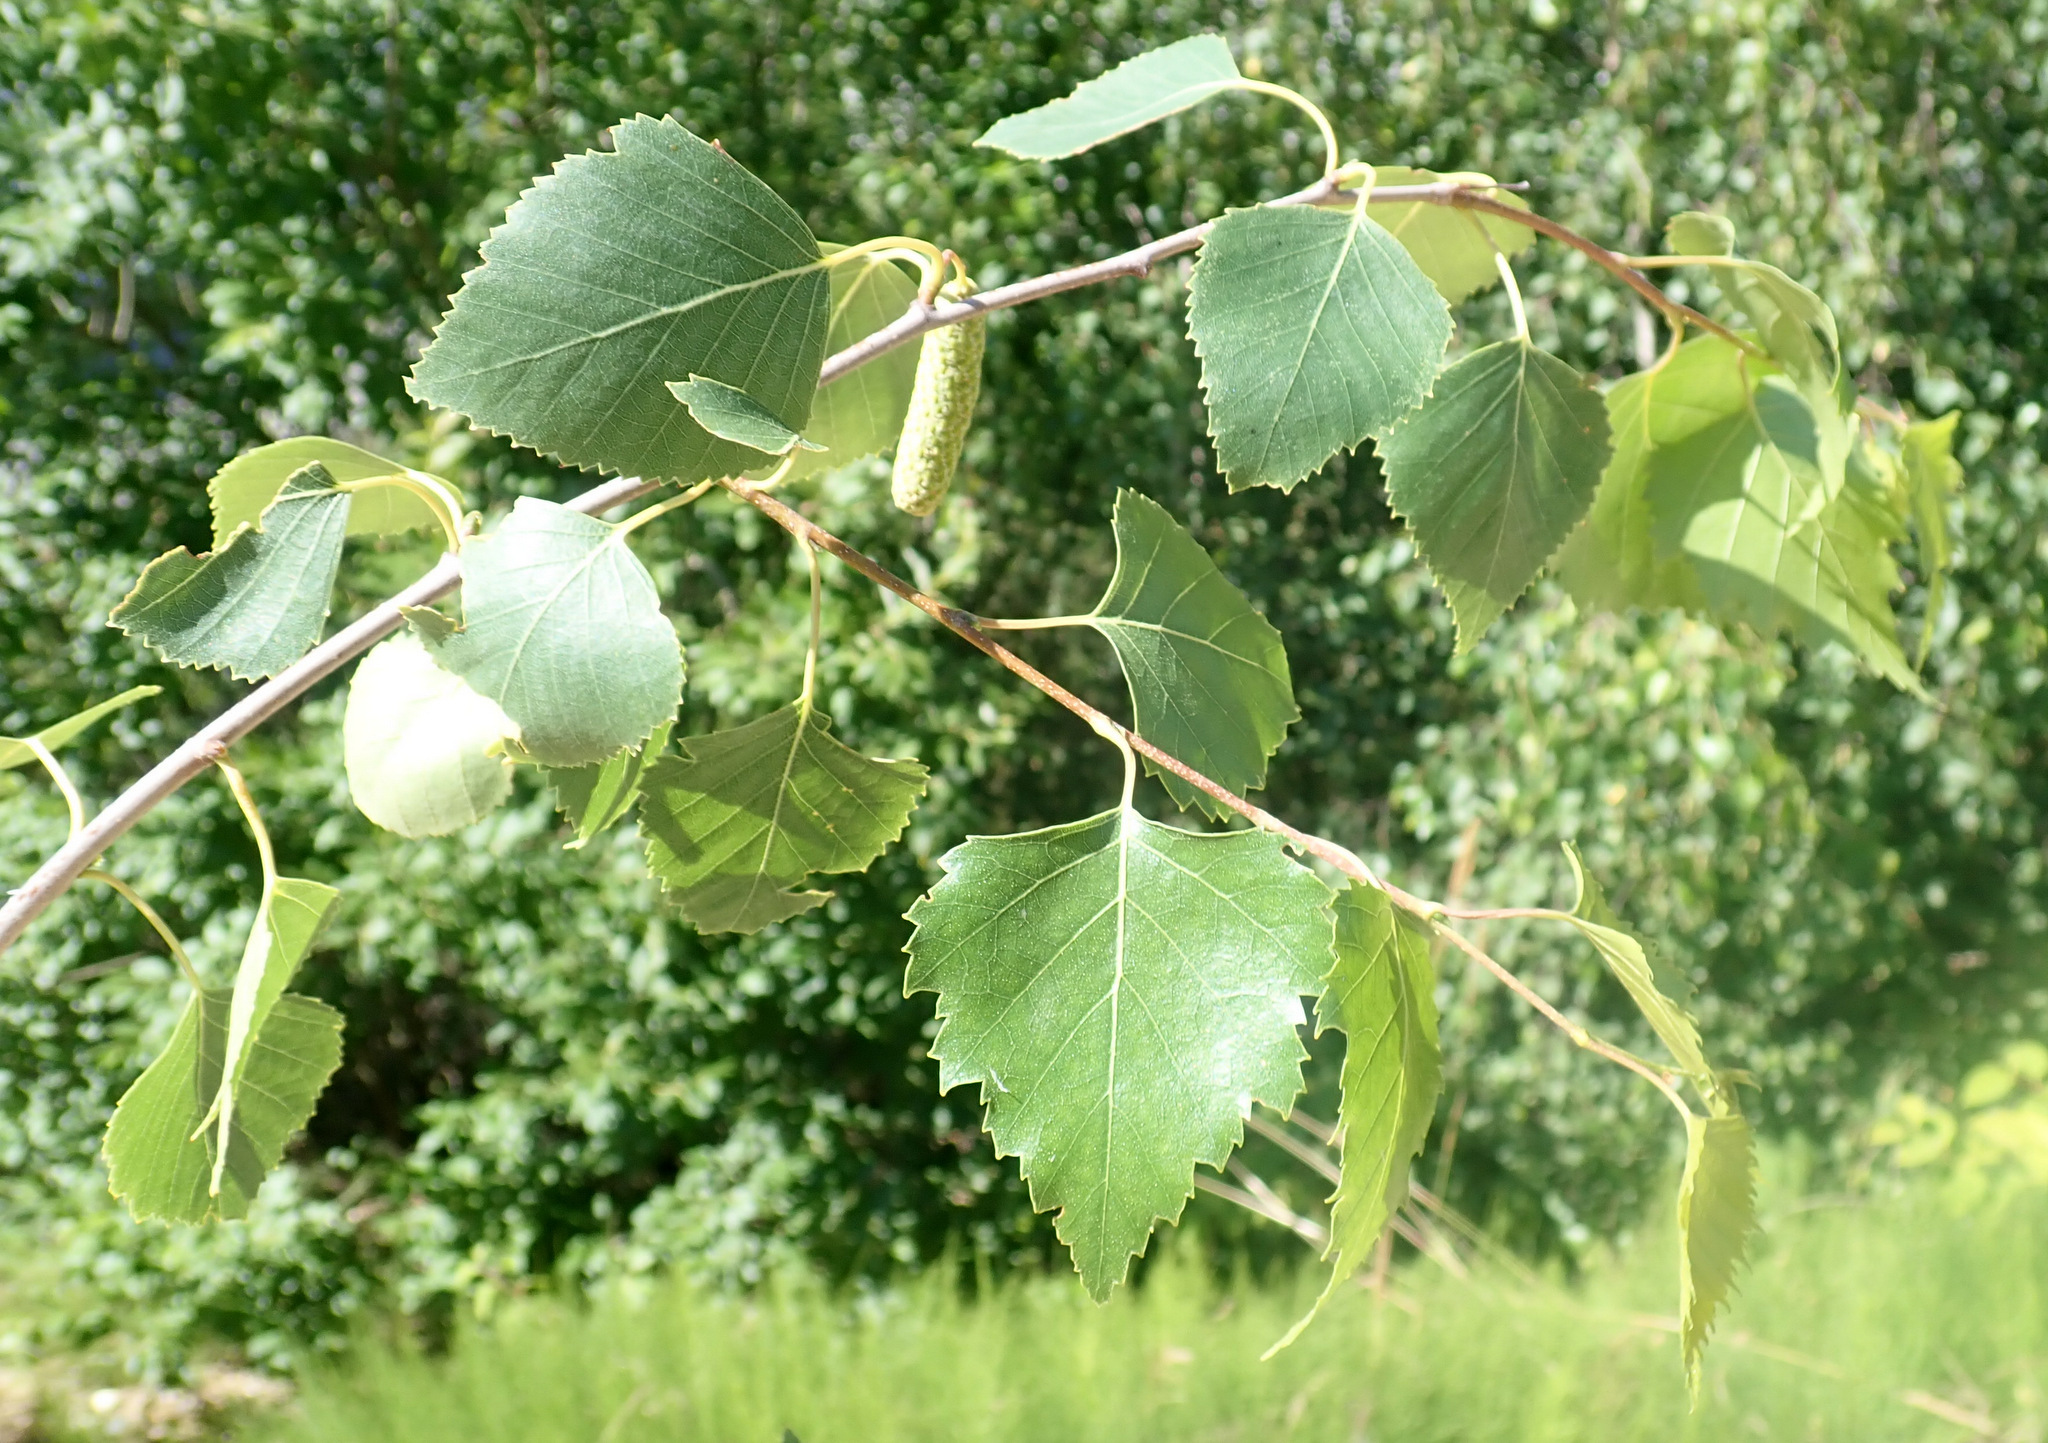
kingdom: Plantae
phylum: Tracheophyta
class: Magnoliopsida
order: Fagales
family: Betulaceae
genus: Betula
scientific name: Betula pendula
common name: Silver birch
